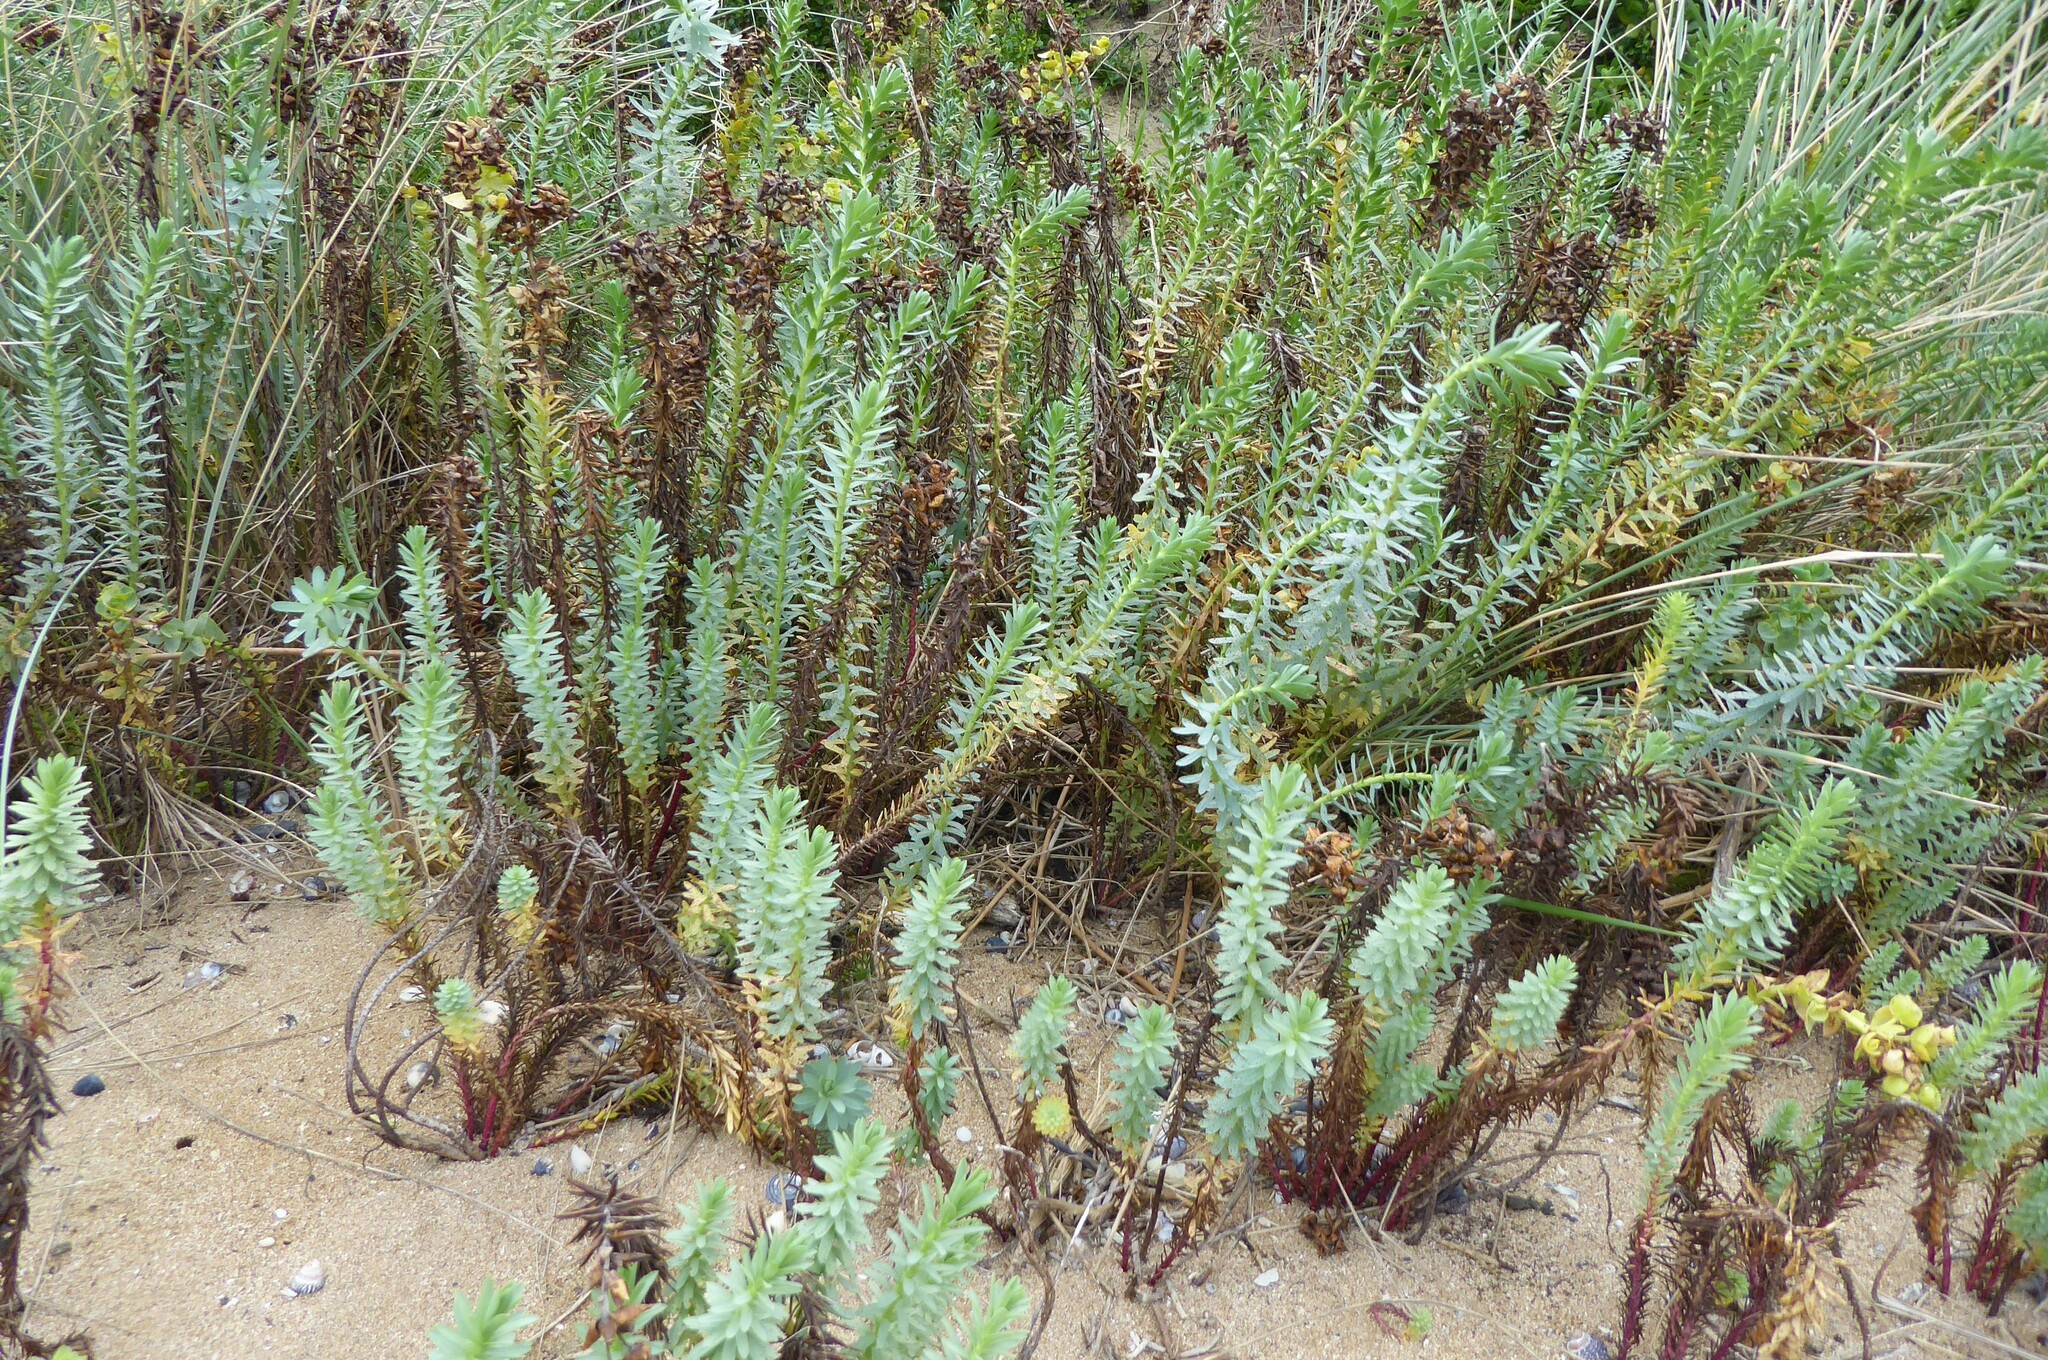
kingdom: Plantae
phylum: Tracheophyta
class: Magnoliopsida
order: Malpighiales
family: Euphorbiaceae
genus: Euphorbia
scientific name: Euphorbia paralias
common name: Sea spurge
